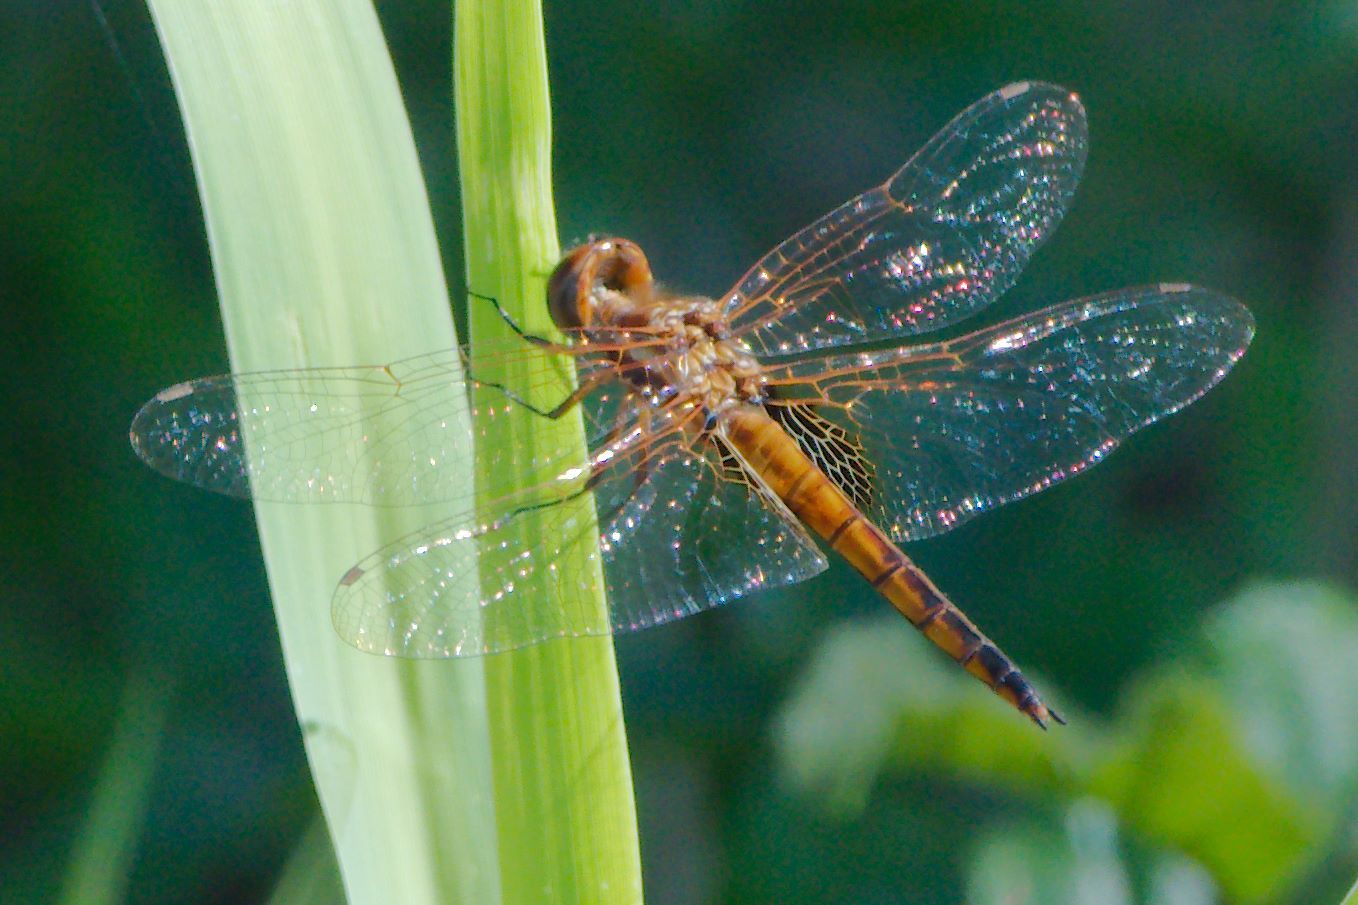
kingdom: Animalia
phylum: Arthropoda
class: Insecta
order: Odonata
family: Libellulidae
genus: Miathyria
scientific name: Miathyria marcella
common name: Hyacinth glider
